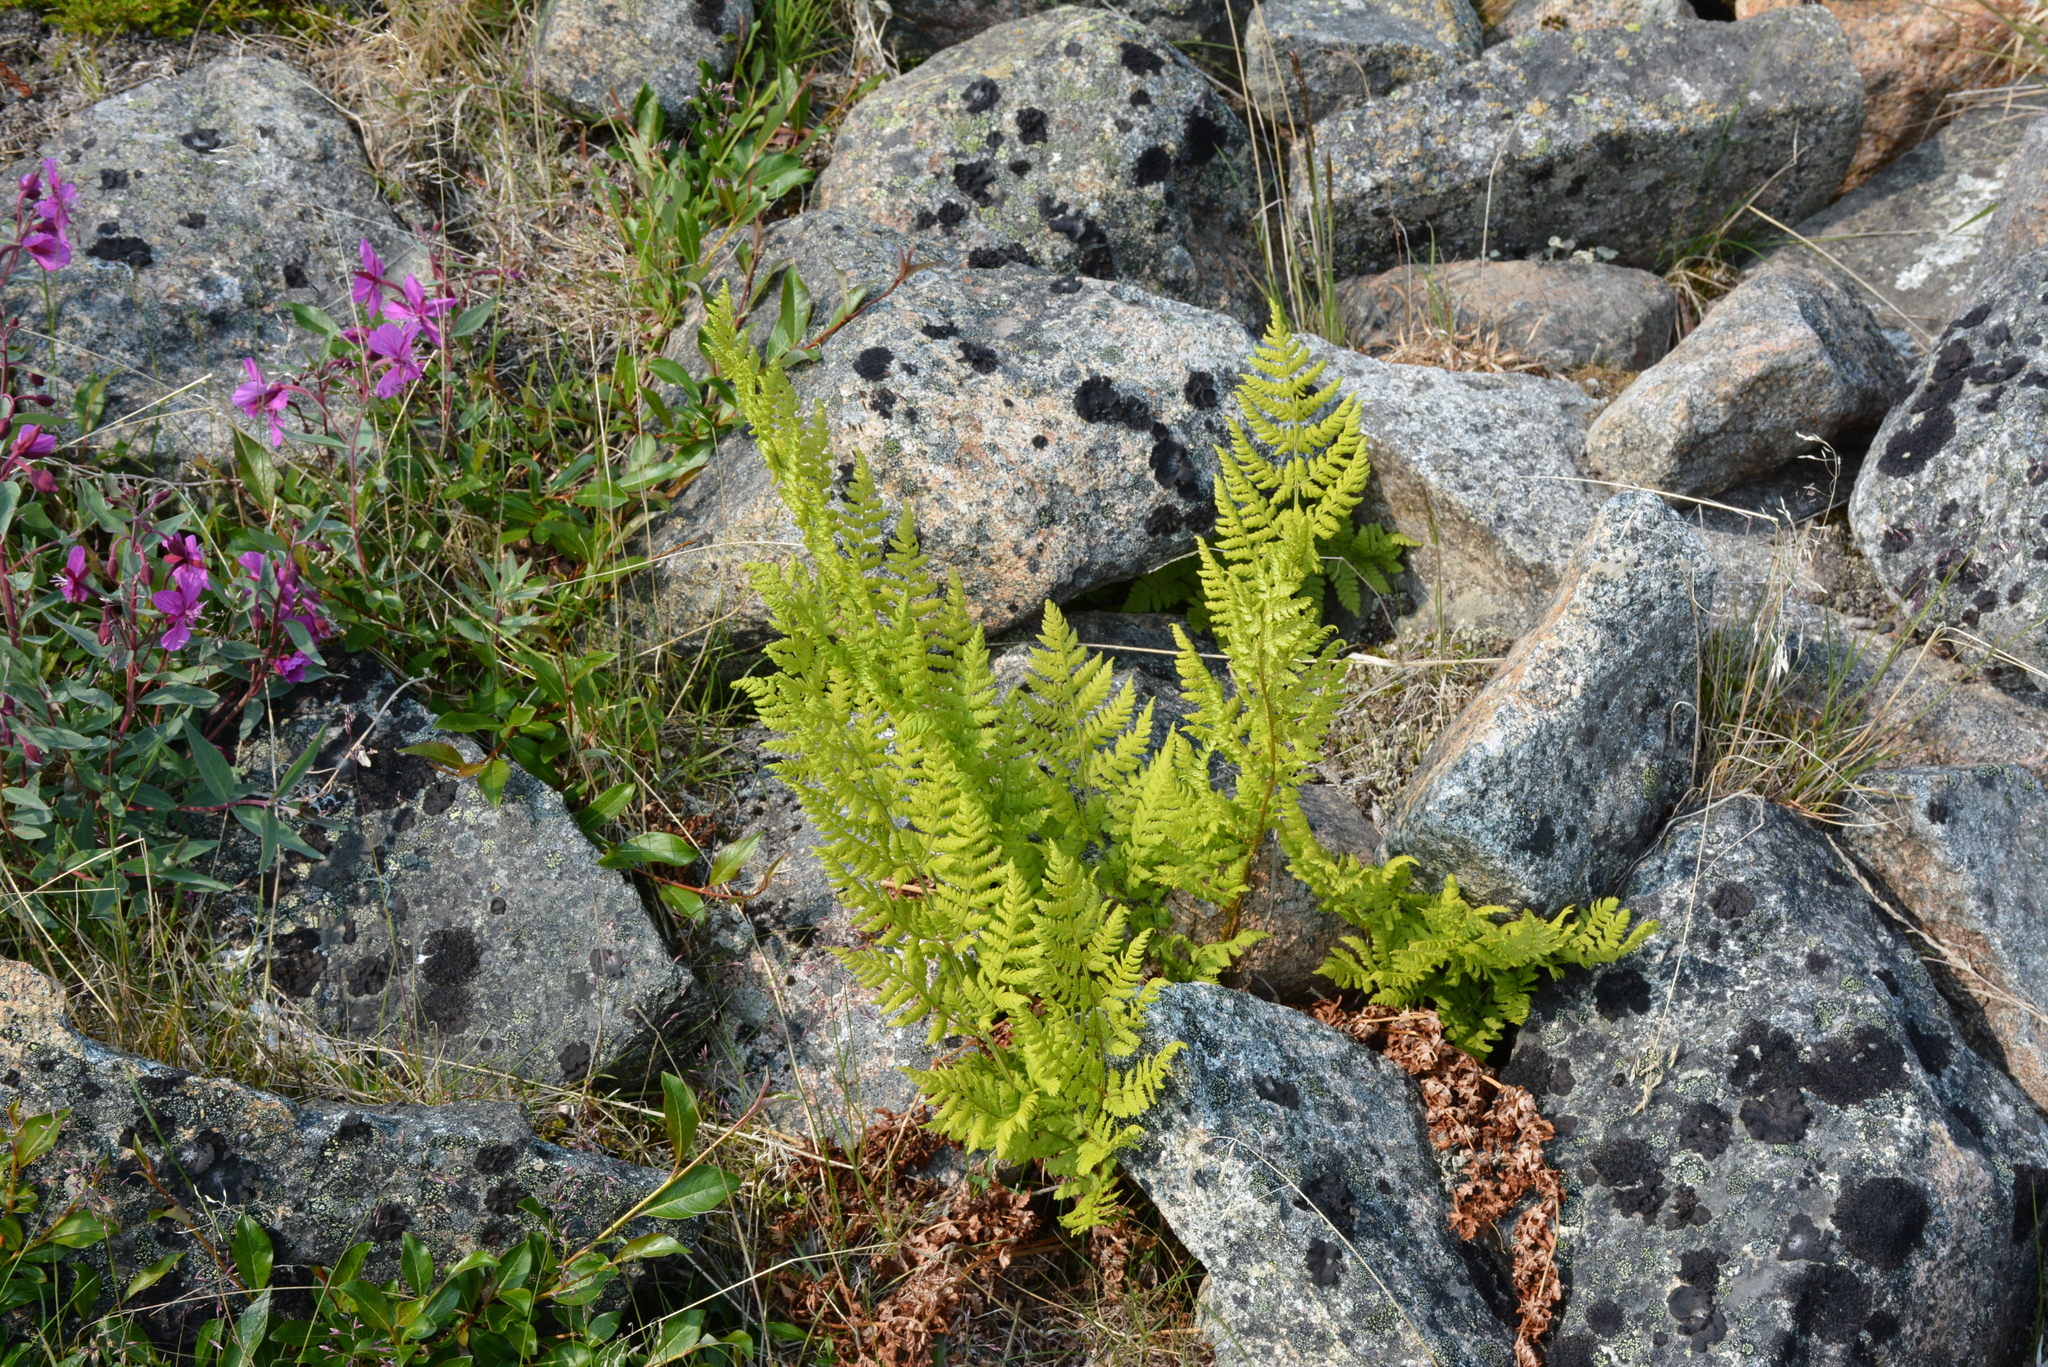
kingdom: Plantae
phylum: Tracheophyta
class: Polypodiopsida
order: Polypodiales
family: Athyriaceae
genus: Athyrium
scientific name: Athyrium americanum
